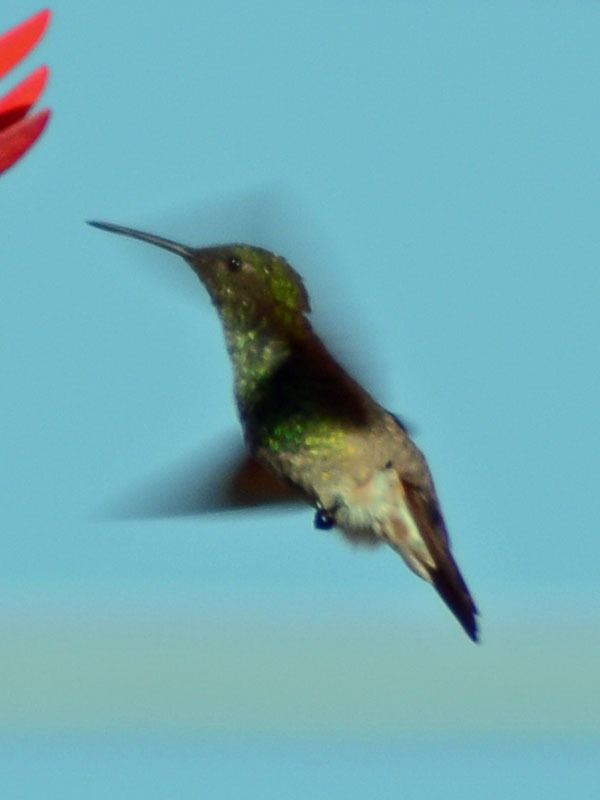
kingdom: Animalia
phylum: Chordata
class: Aves
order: Apodiformes
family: Trochilidae
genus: Saucerottia
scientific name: Saucerottia beryllina
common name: Berylline hummingbird
